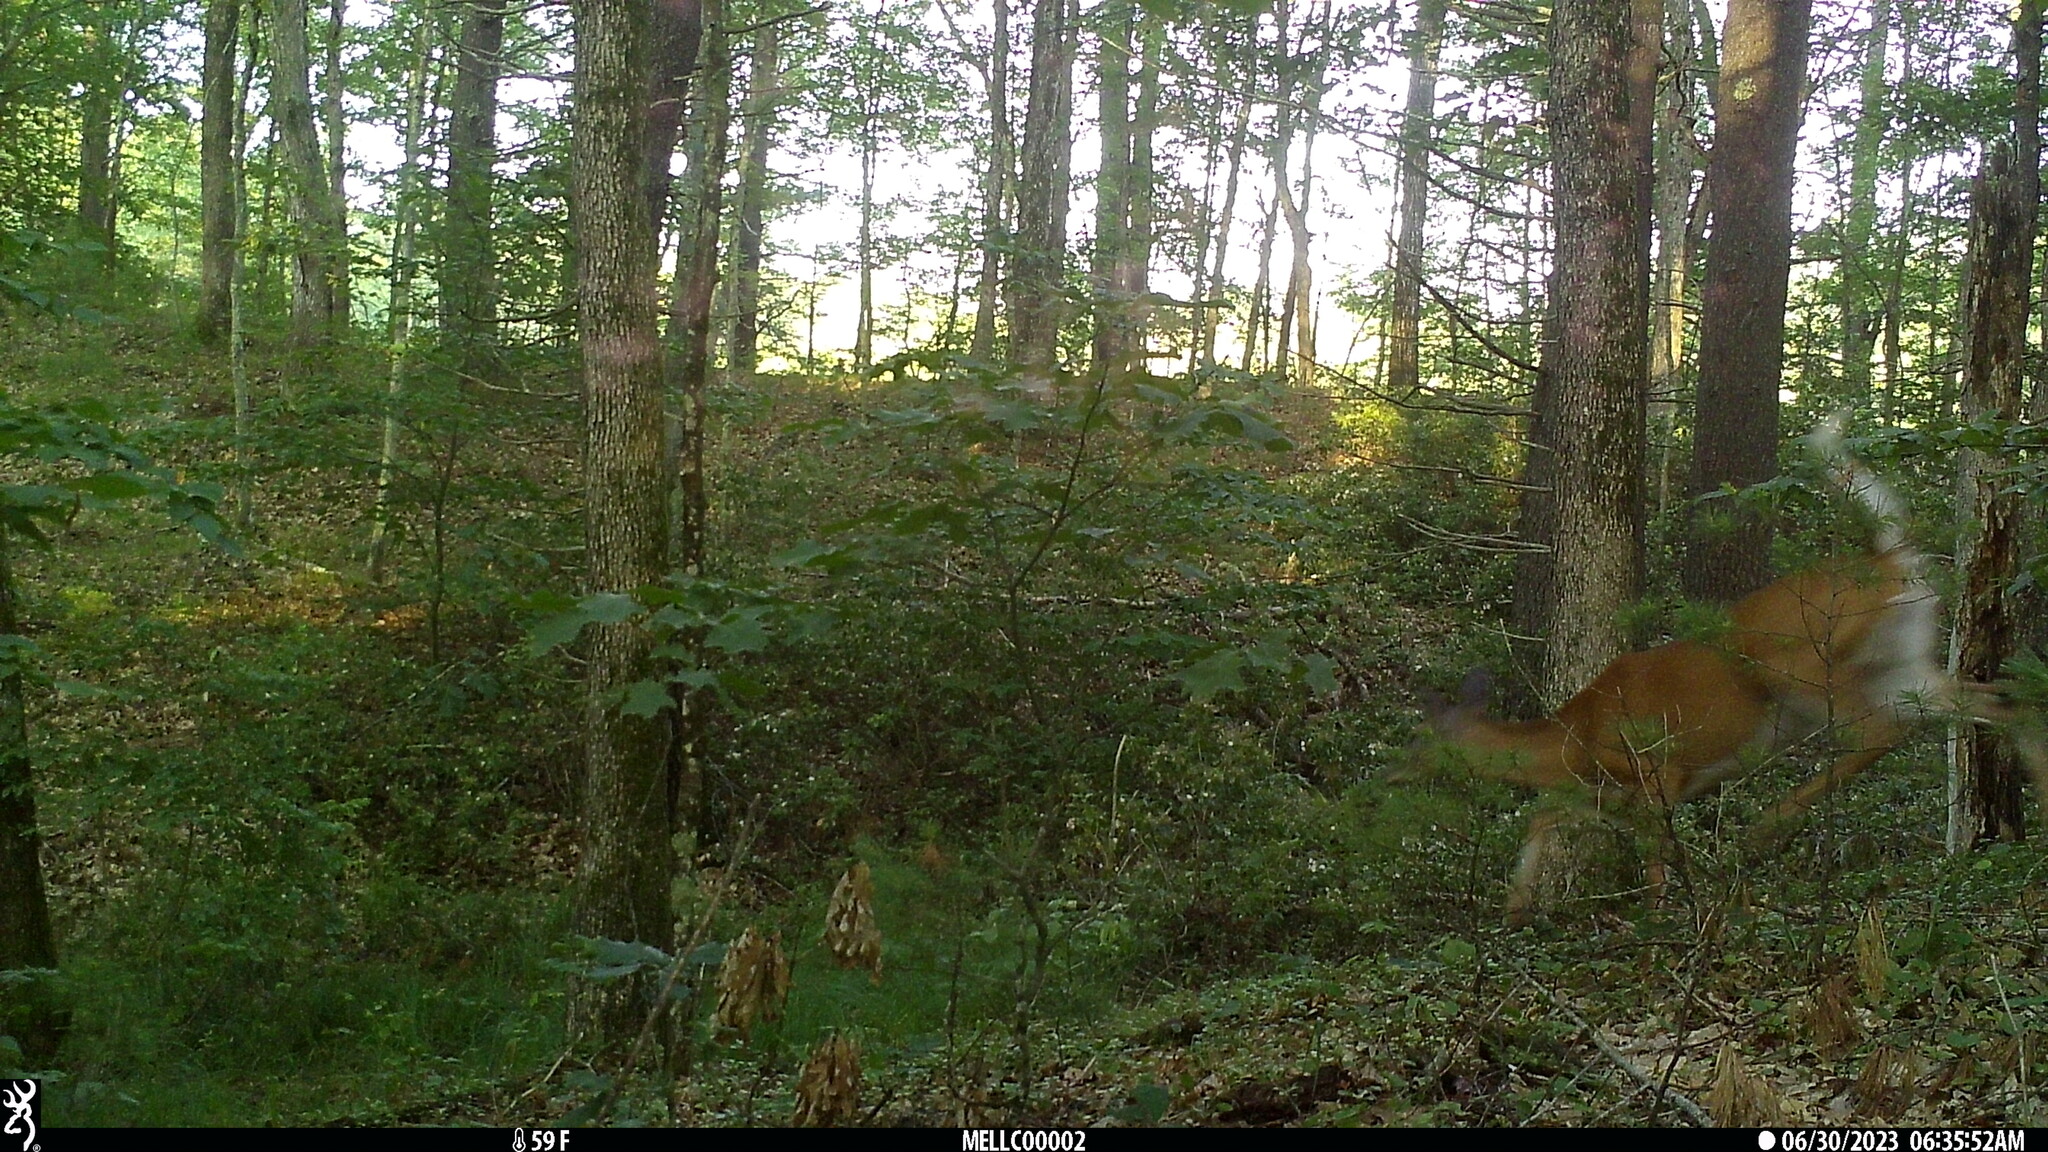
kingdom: Animalia
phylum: Chordata
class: Mammalia
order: Artiodactyla
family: Cervidae
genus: Odocoileus
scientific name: Odocoileus virginianus
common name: White-tailed deer
